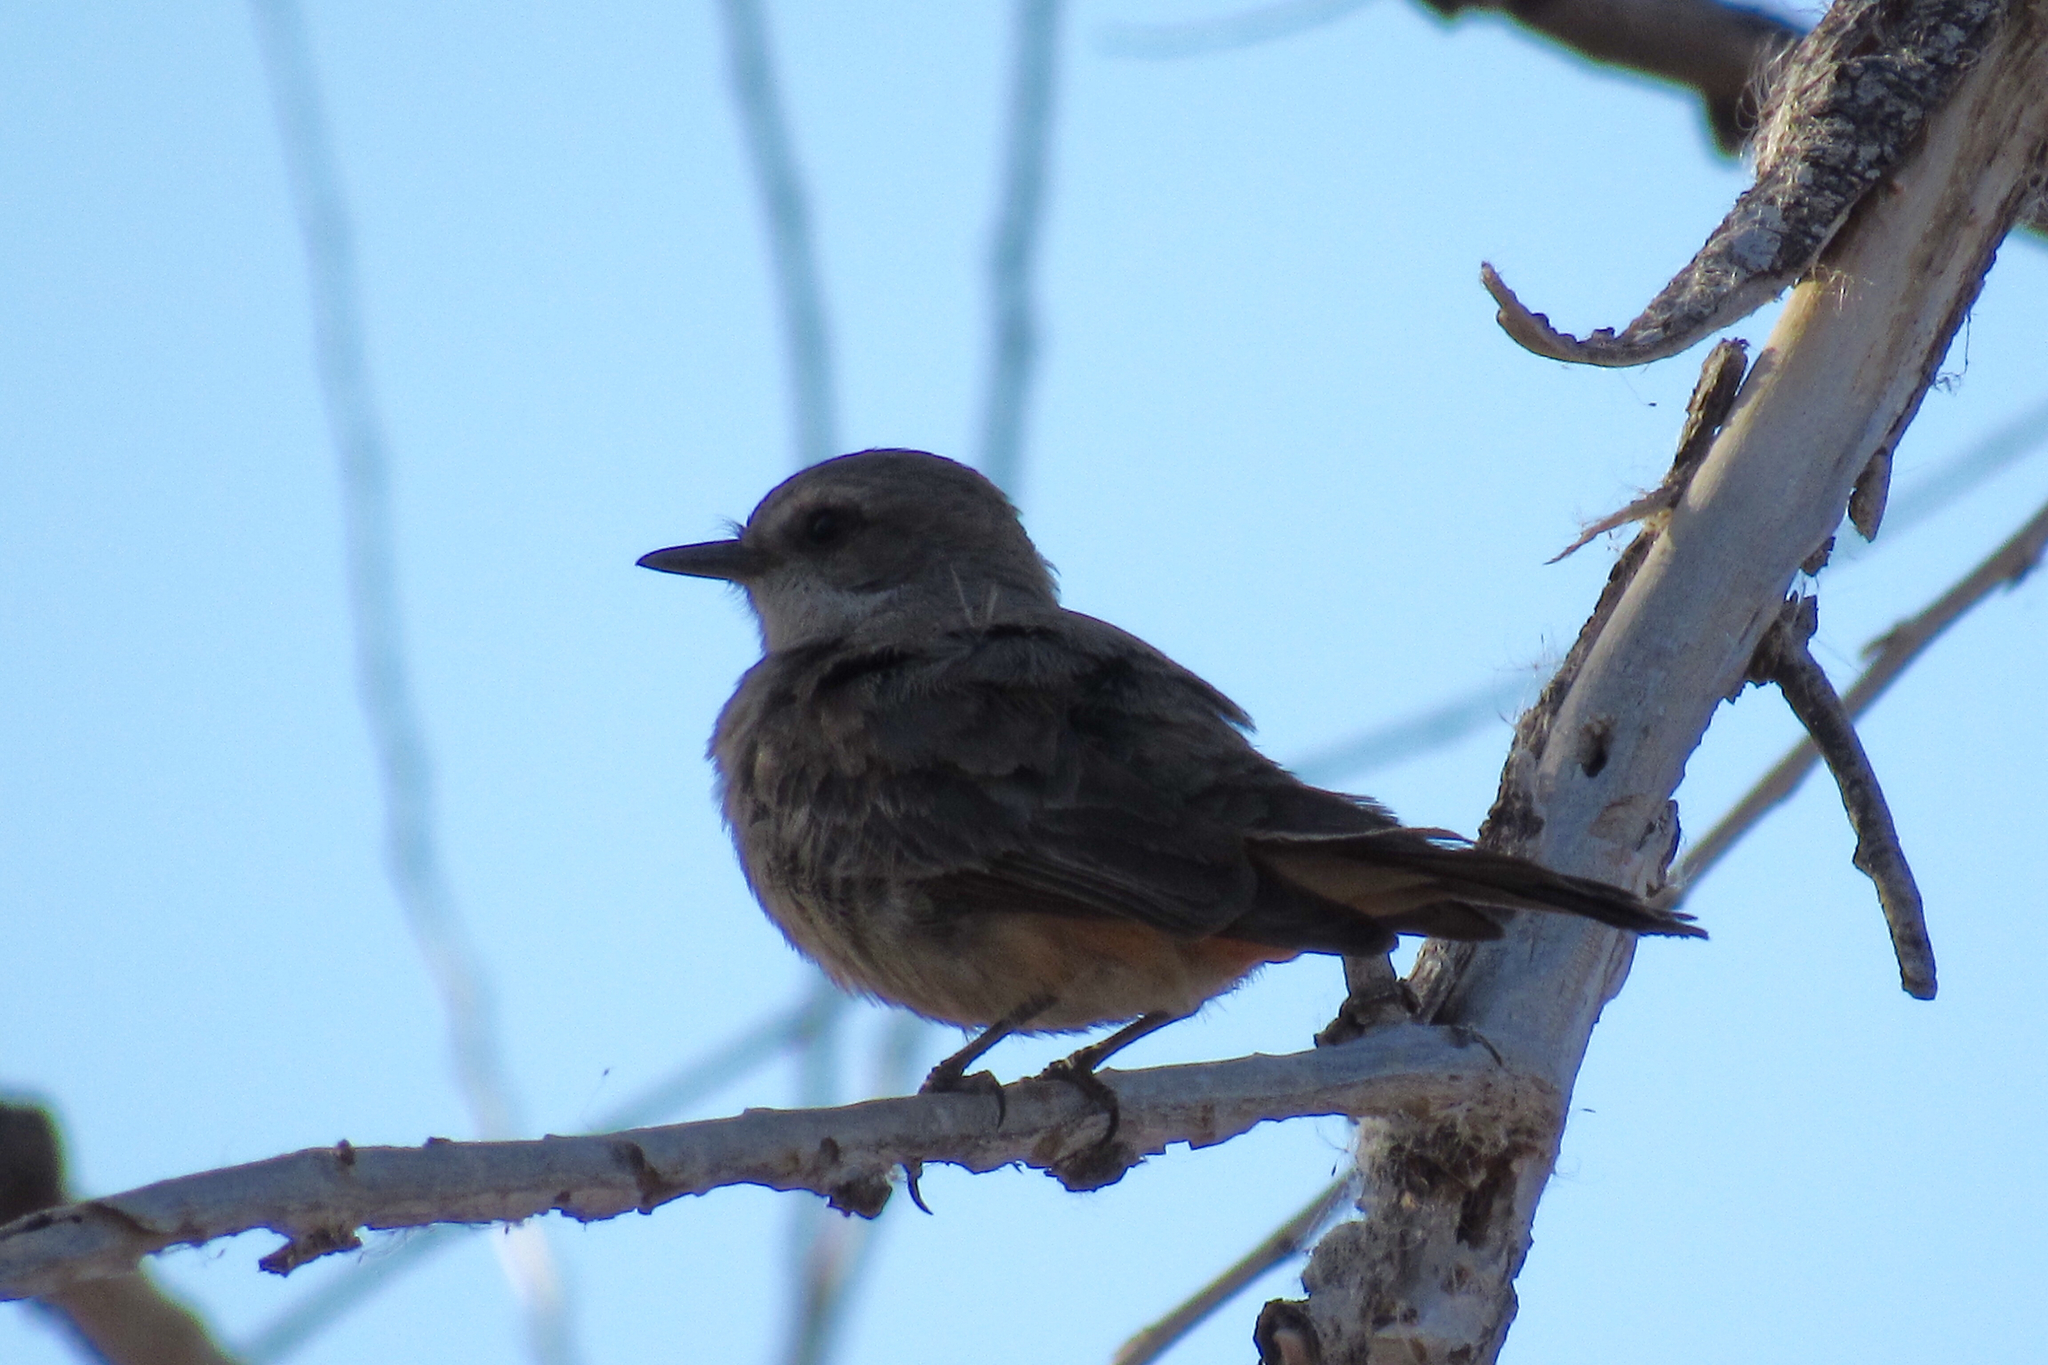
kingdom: Animalia
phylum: Chordata
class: Aves
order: Passeriformes
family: Tyrannidae
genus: Pyrocephalus
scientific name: Pyrocephalus rubinus
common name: Vermilion flycatcher
